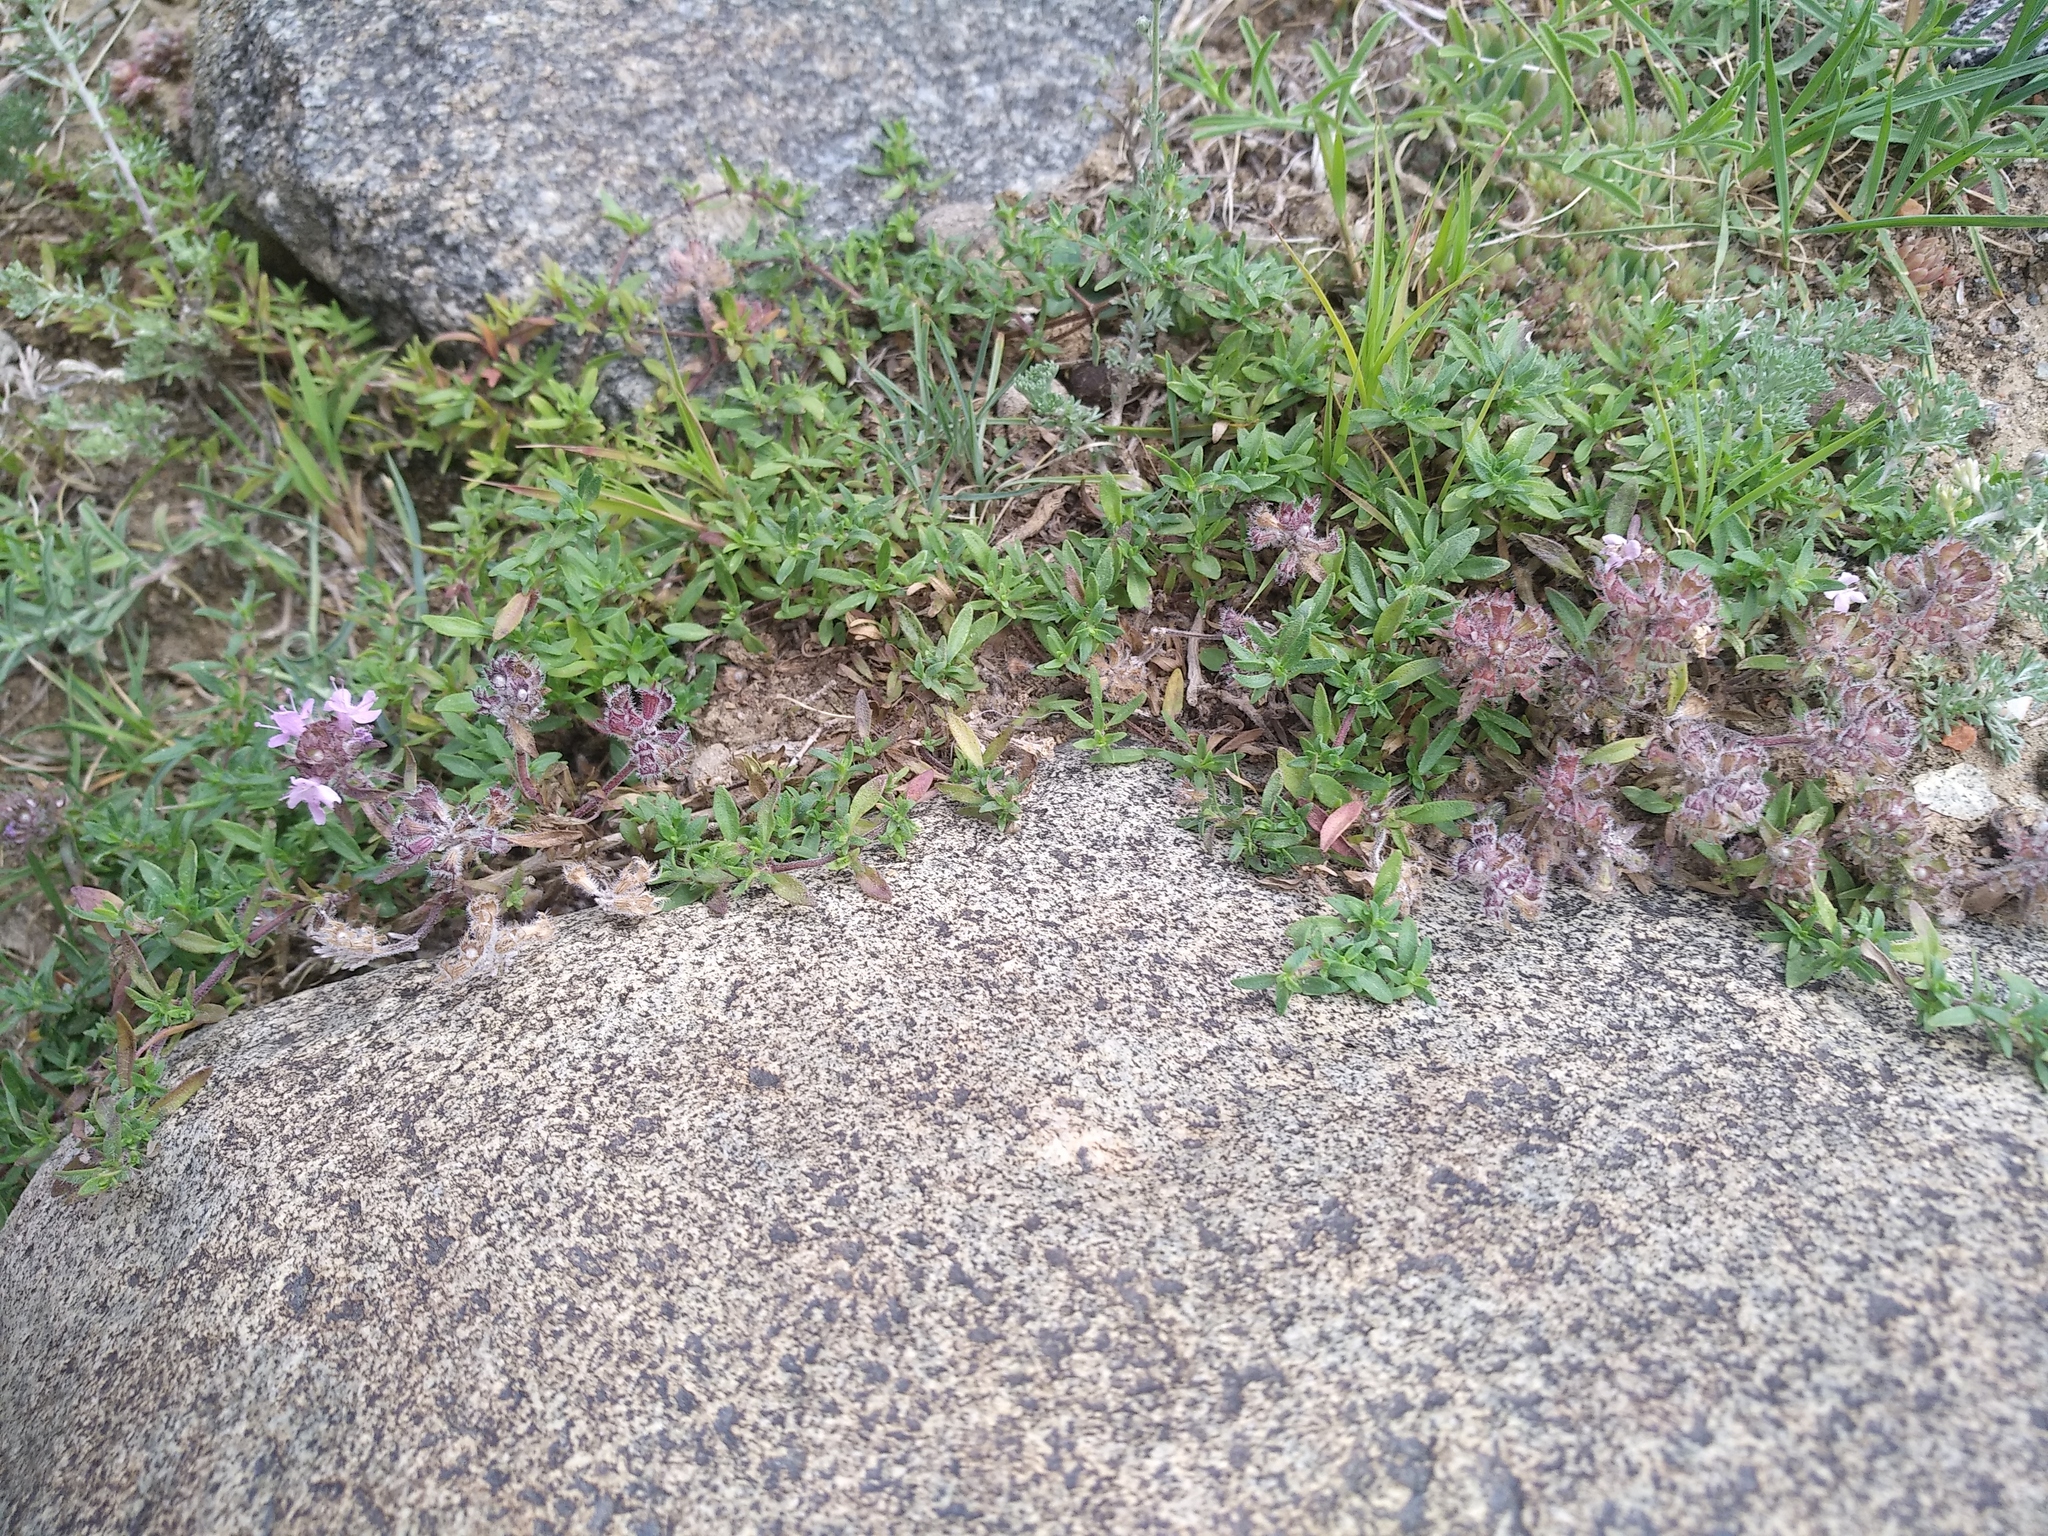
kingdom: Plantae
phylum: Tracheophyta
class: Magnoliopsida
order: Lamiales
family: Lamiaceae
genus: Thymus
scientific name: Thymus gobicus
